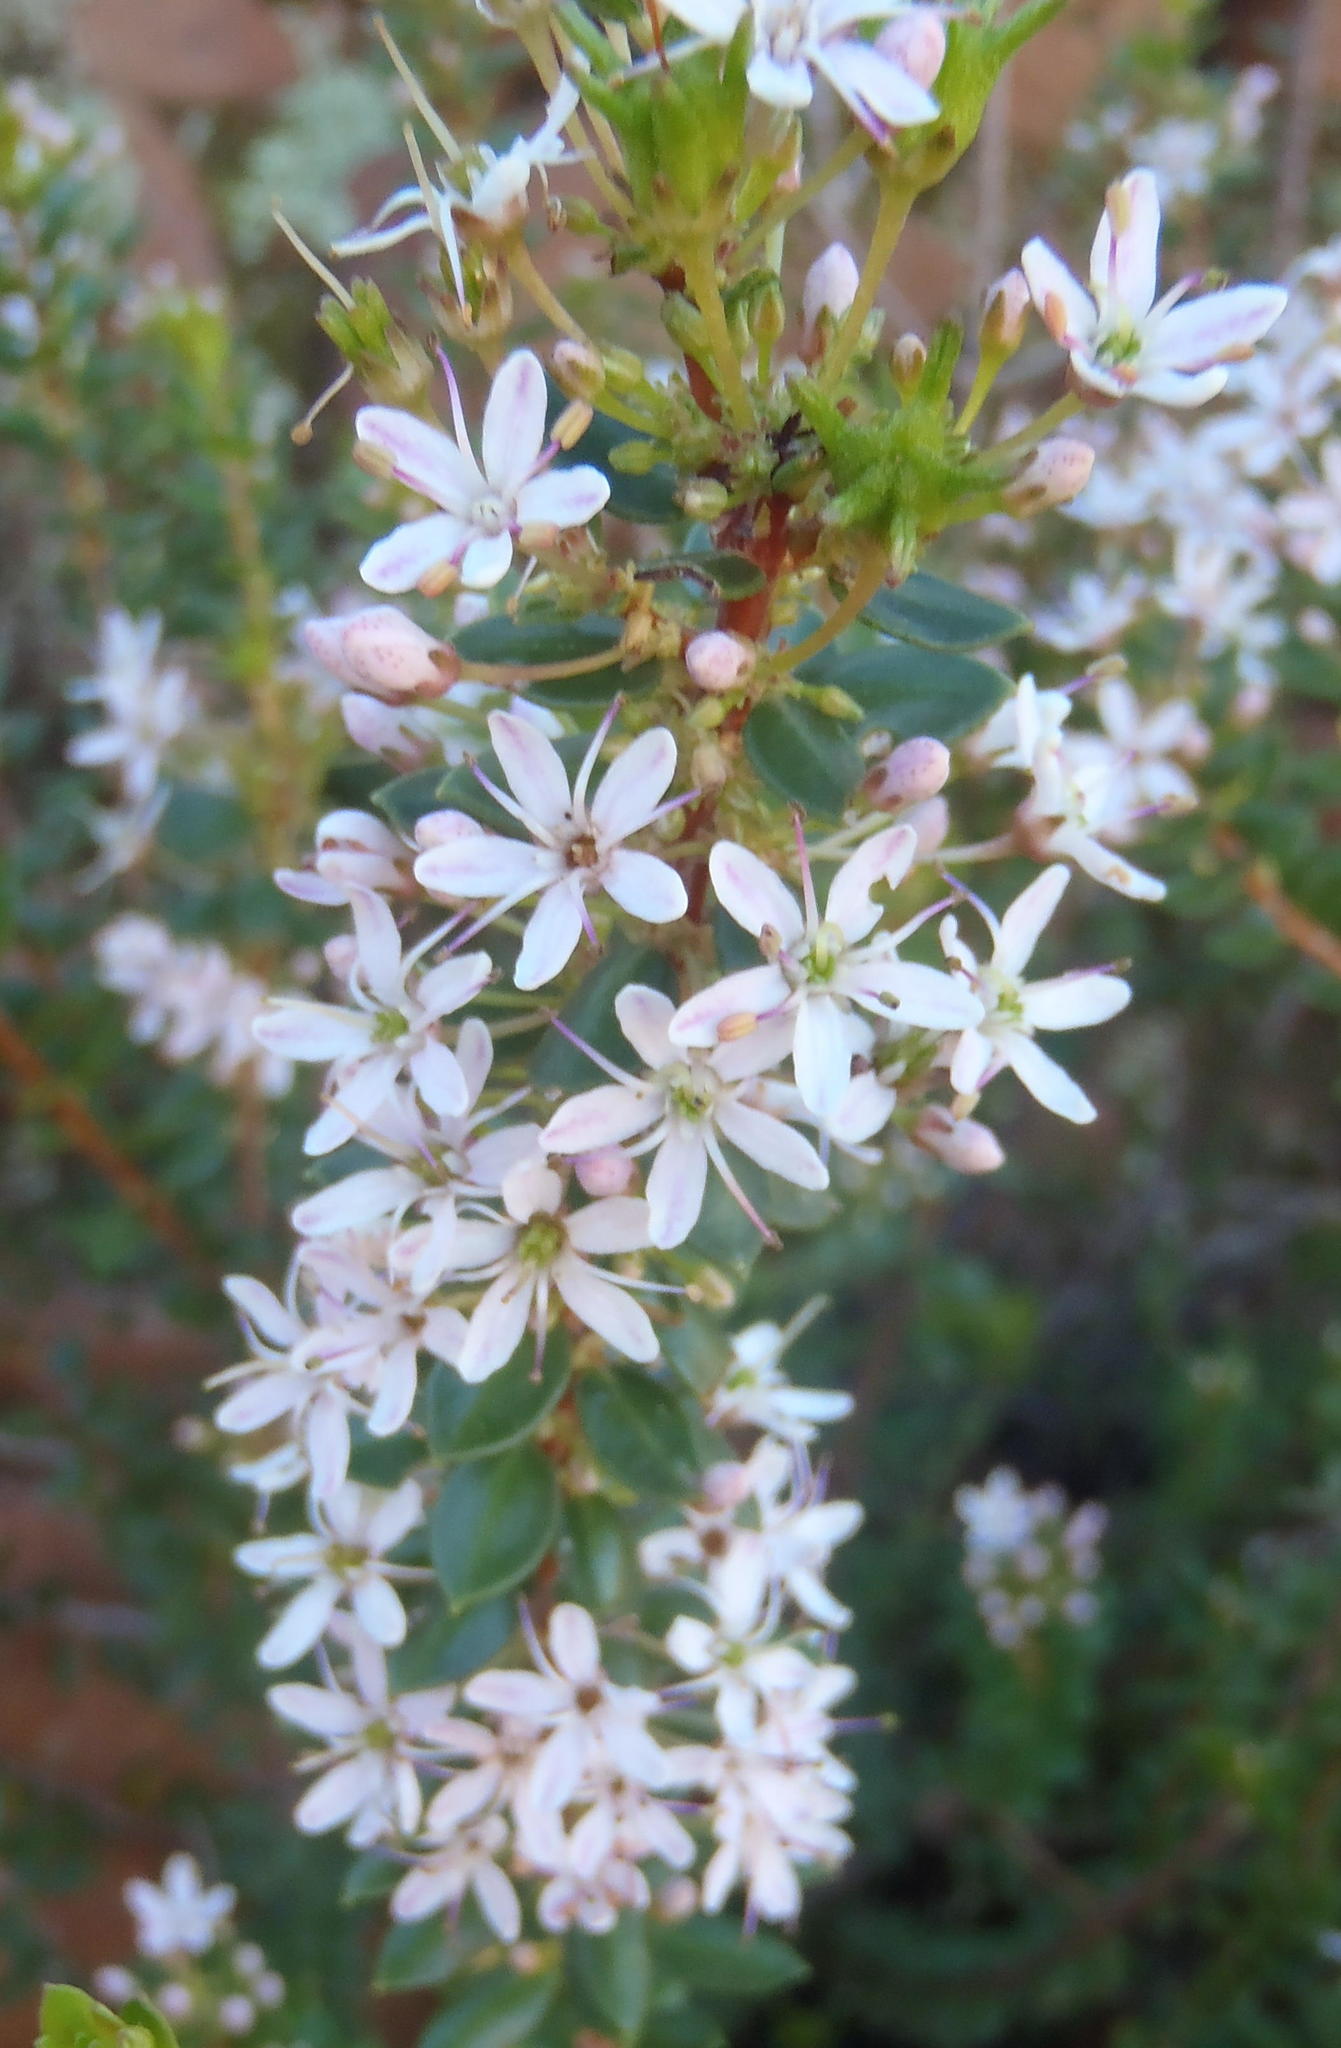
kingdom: Plantae
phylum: Tracheophyta
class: Magnoliopsida
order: Sapindales
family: Rutaceae
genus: Agathosma
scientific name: Agathosma ovata
